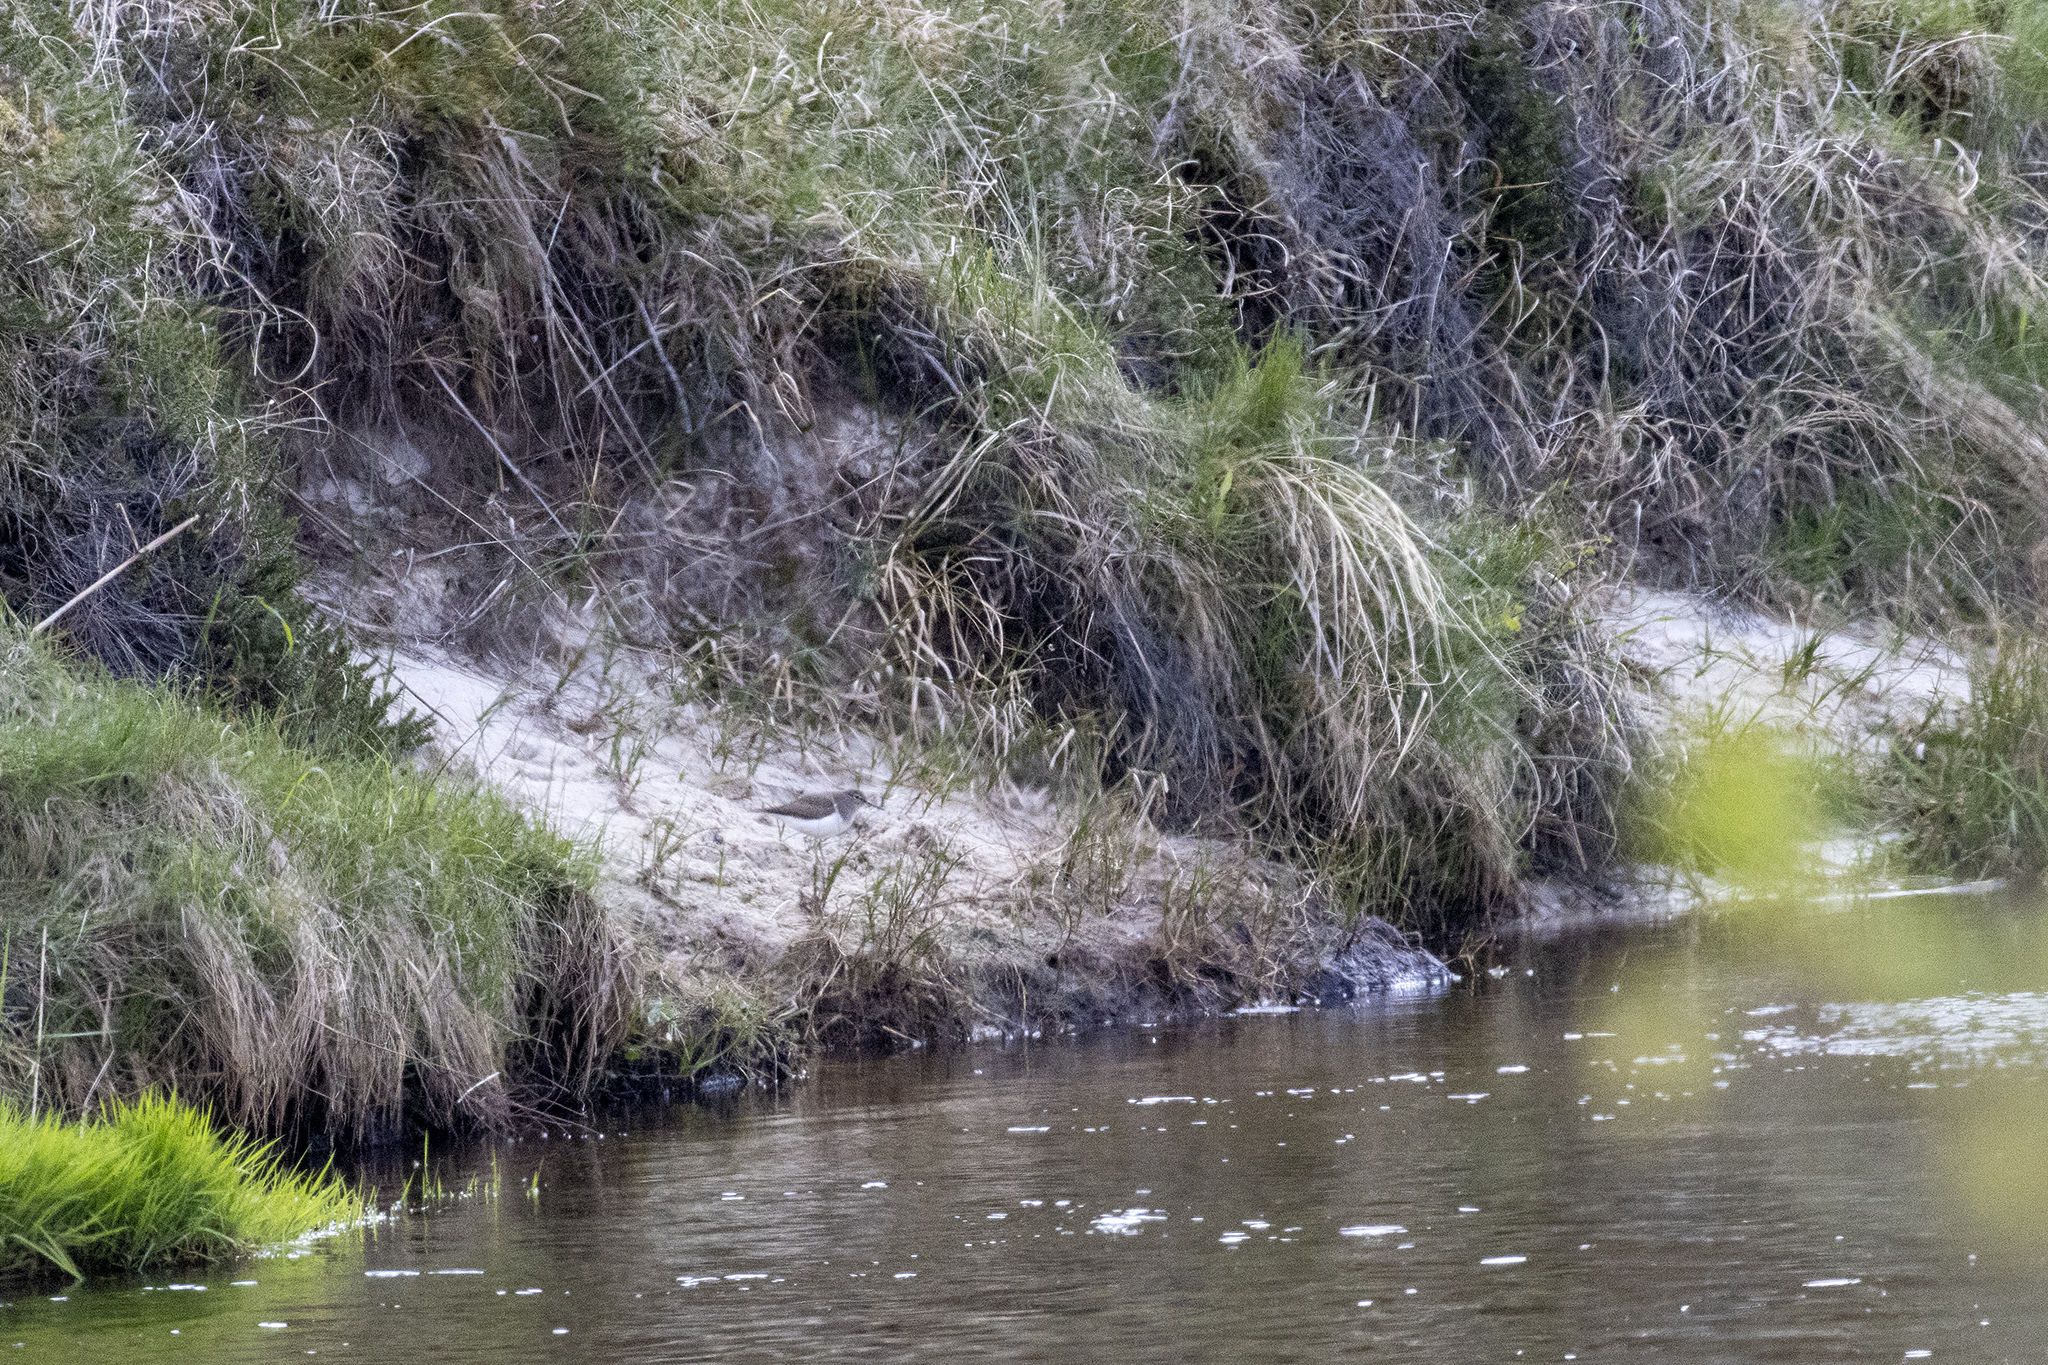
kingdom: Animalia
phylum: Chordata
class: Aves
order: Charadriiformes
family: Scolopacidae
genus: Actitis
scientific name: Actitis hypoleucos
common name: Common sandpiper
